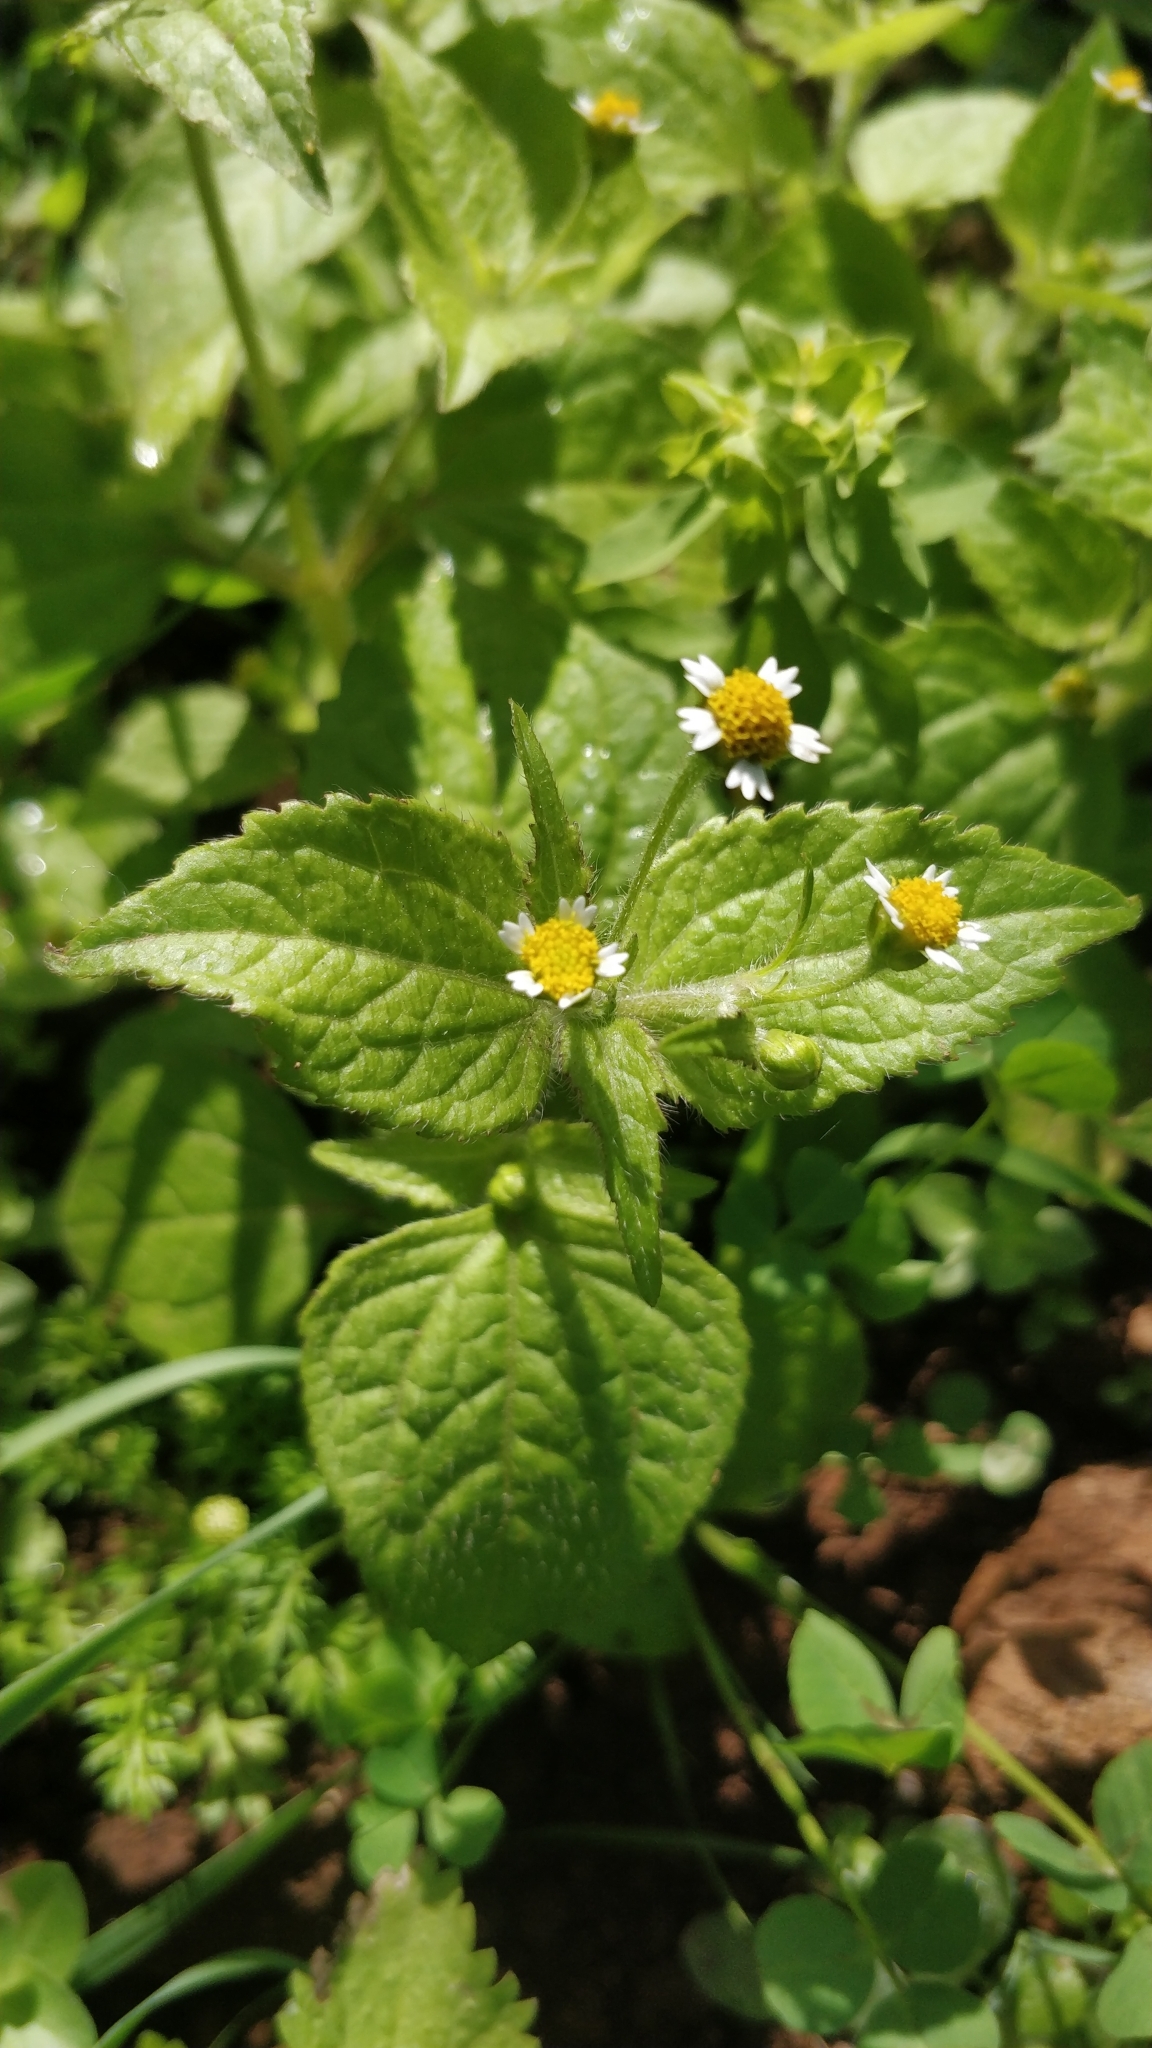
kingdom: Plantae
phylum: Tracheophyta
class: Magnoliopsida
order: Asterales
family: Asteraceae
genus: Galinsoga
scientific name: Galinsoga quadriradiata
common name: Shaggy soldier
